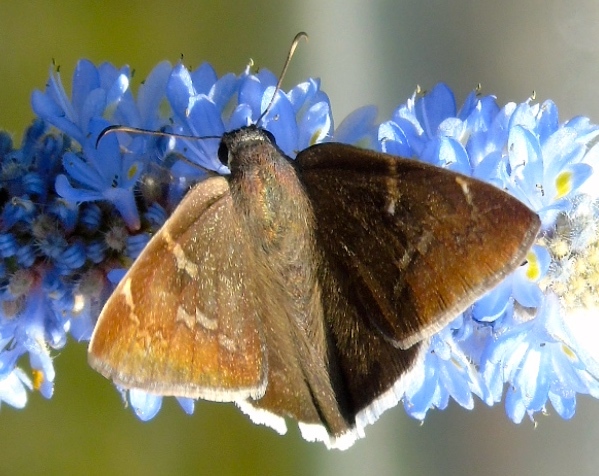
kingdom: Animalia
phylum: Arthropoda
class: Insecta
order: Lepidoptera
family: Hesperiidae
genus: Achalarus
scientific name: Achalarus
